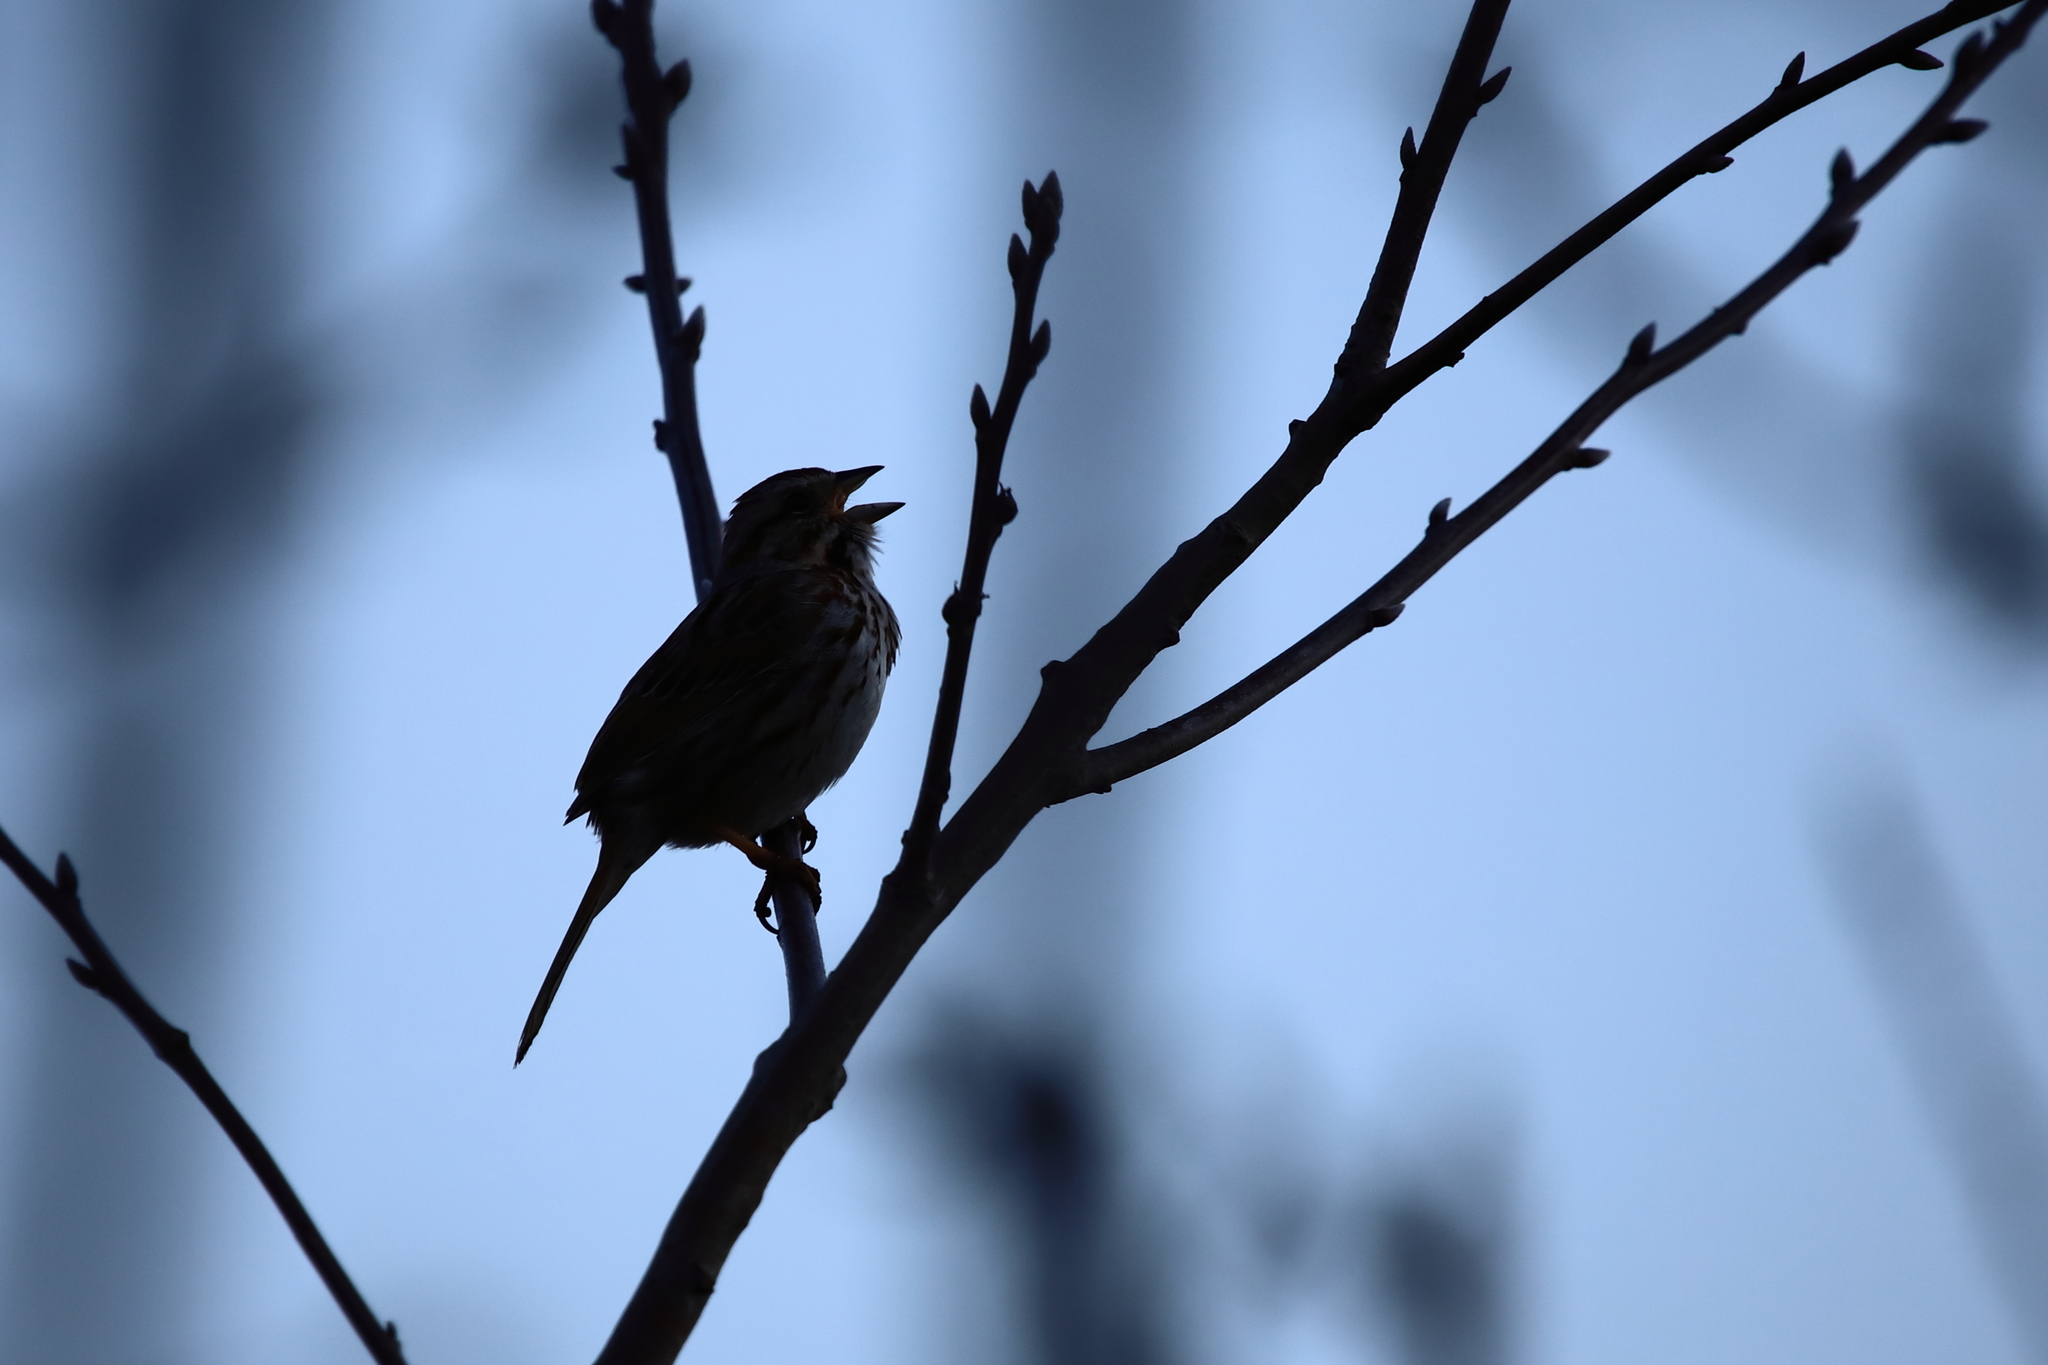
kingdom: Animalia
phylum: Chordata
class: Aves
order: Passeriformes
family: Passerellidae
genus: Melospiza
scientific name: Melospiza melodia
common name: Song sparrow
